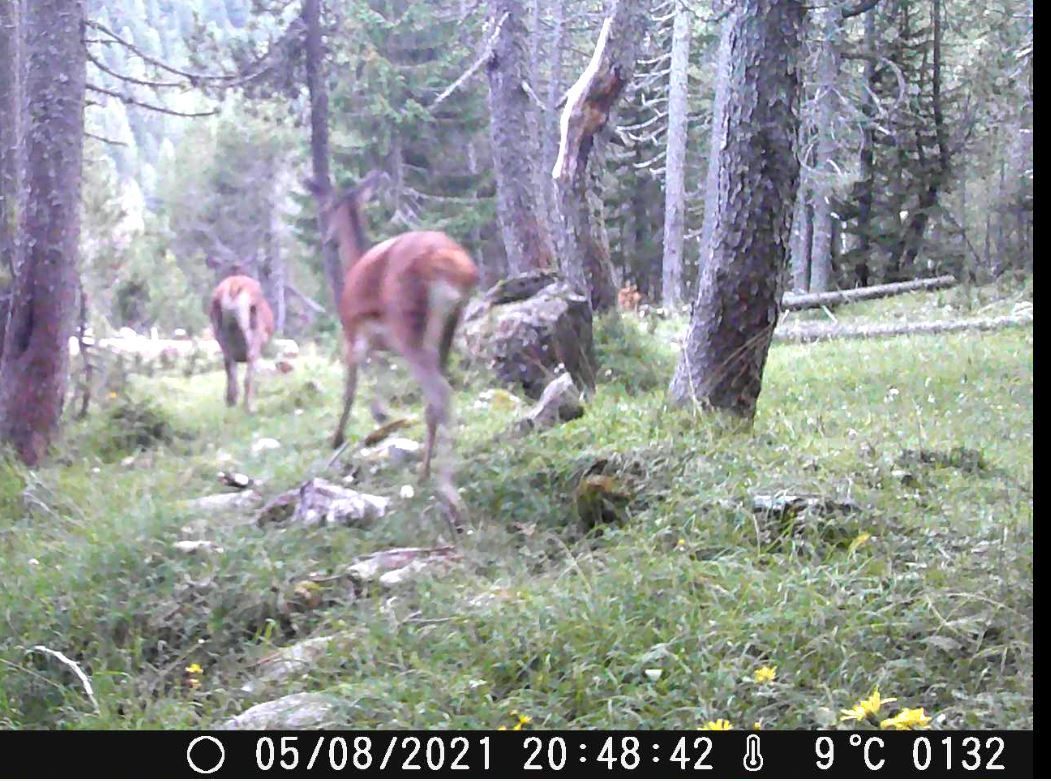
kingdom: Animalia
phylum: Chordata
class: Mammalia
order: Artiodactyla
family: Cervidae
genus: Cervus
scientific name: Cervus elaphus
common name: Red deer
